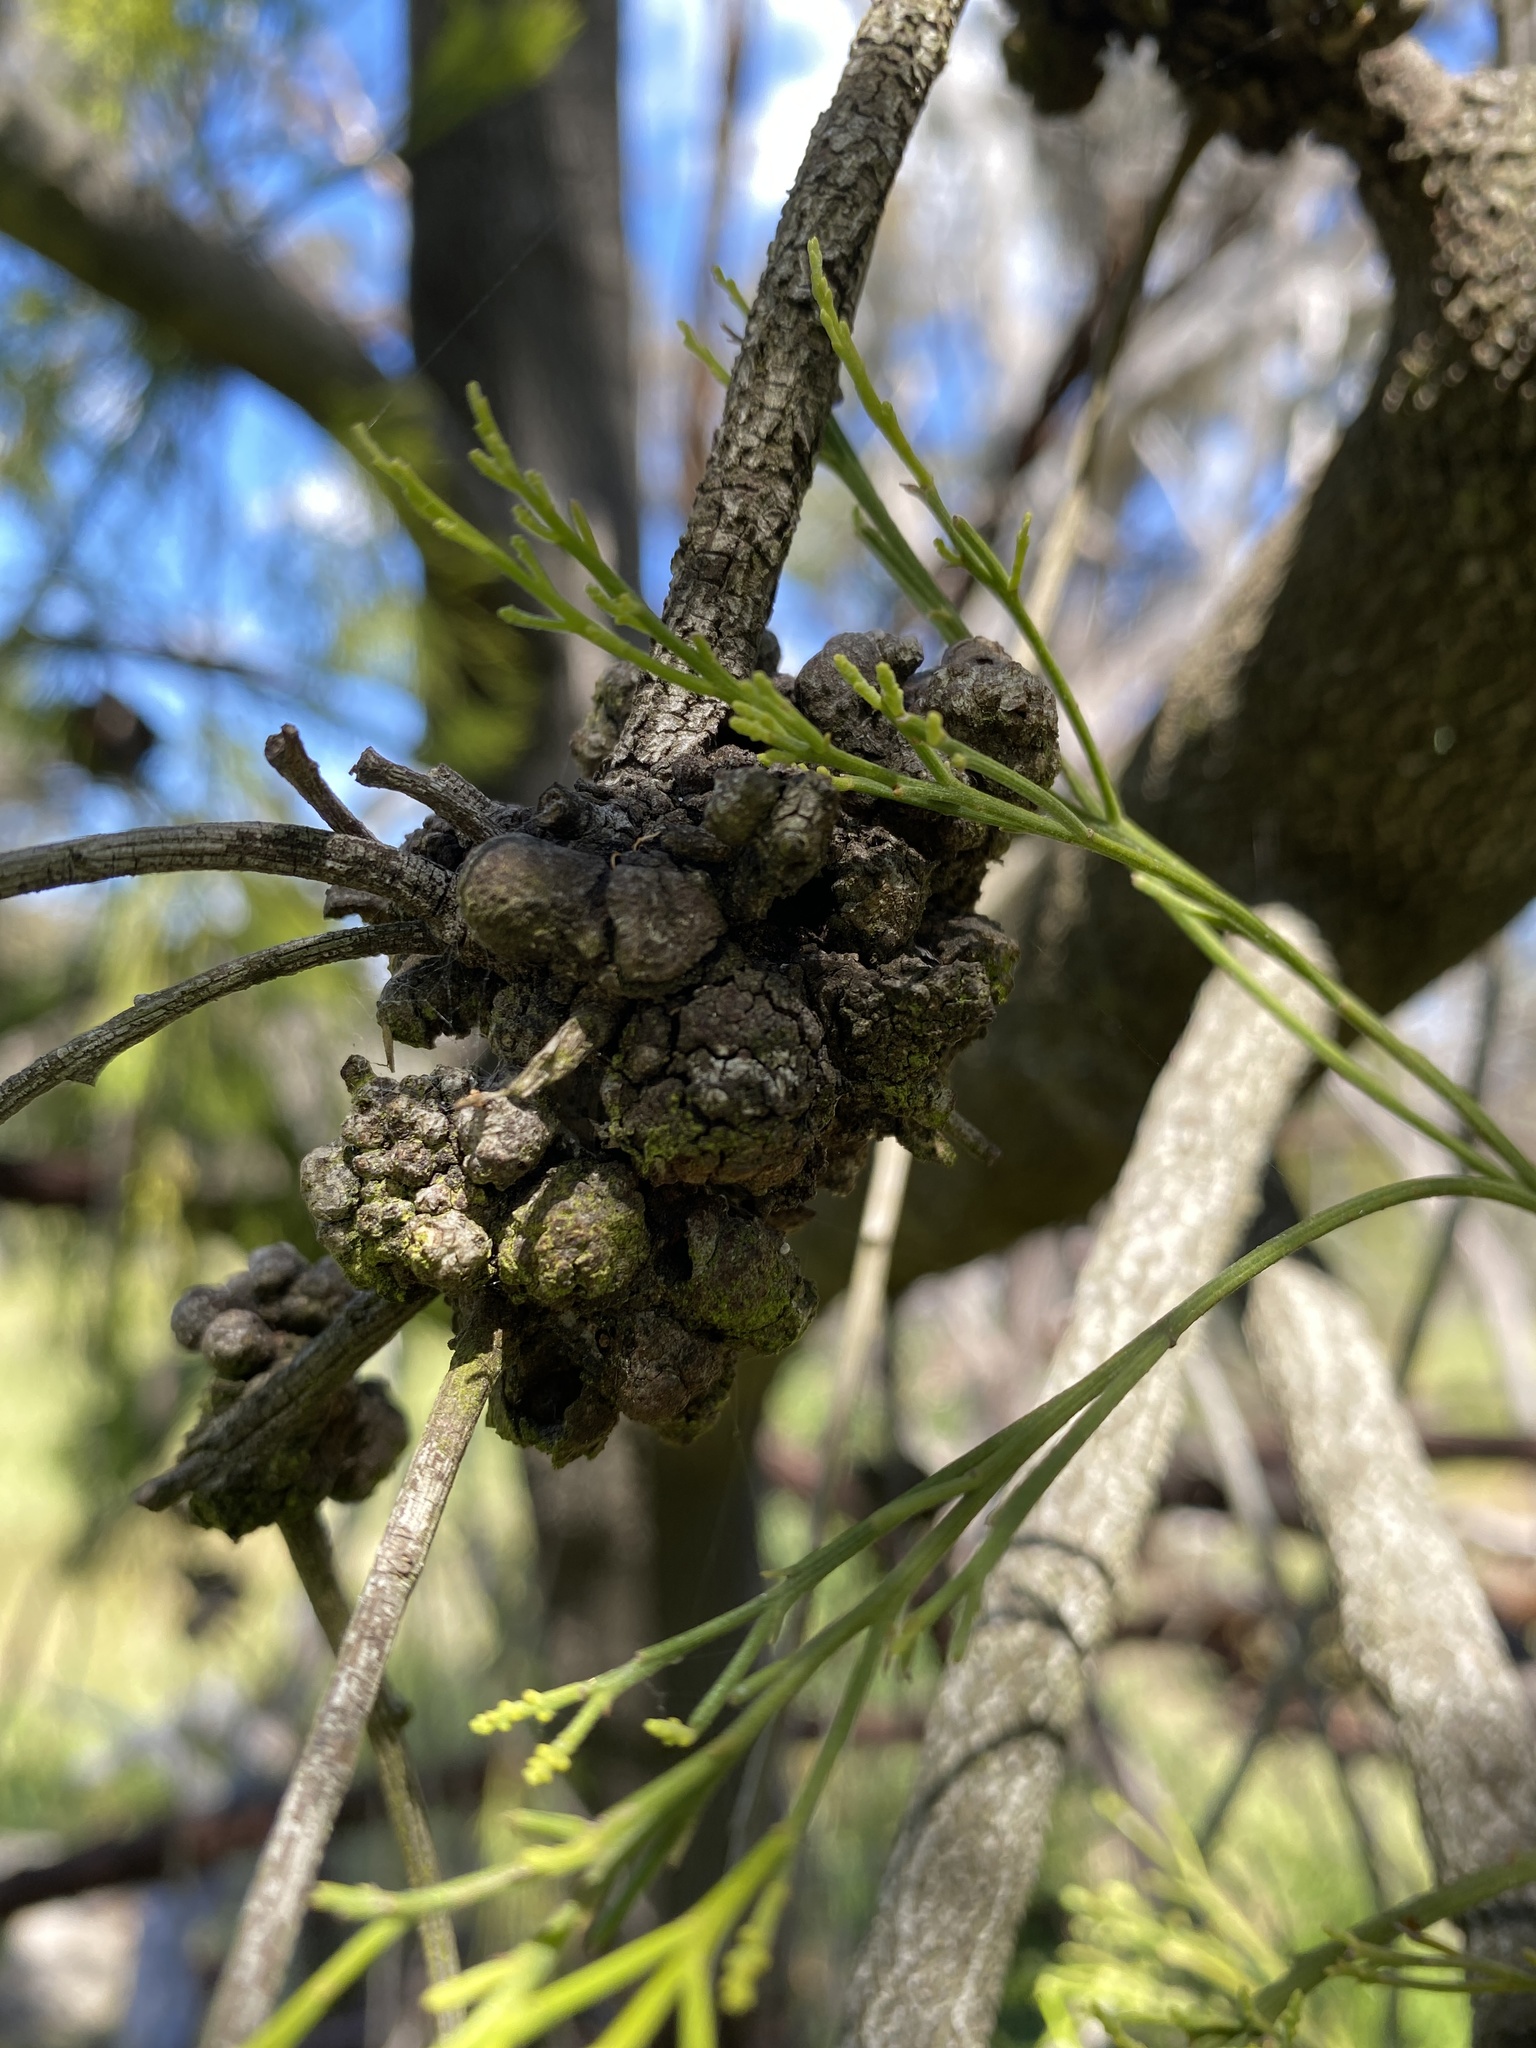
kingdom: Plantae
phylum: Tracheophyta
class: Magnoliopsida
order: Santalales
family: Santalaceae
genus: Exocarpos
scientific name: Exocarpos cupressiformis
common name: Cherry ballart
